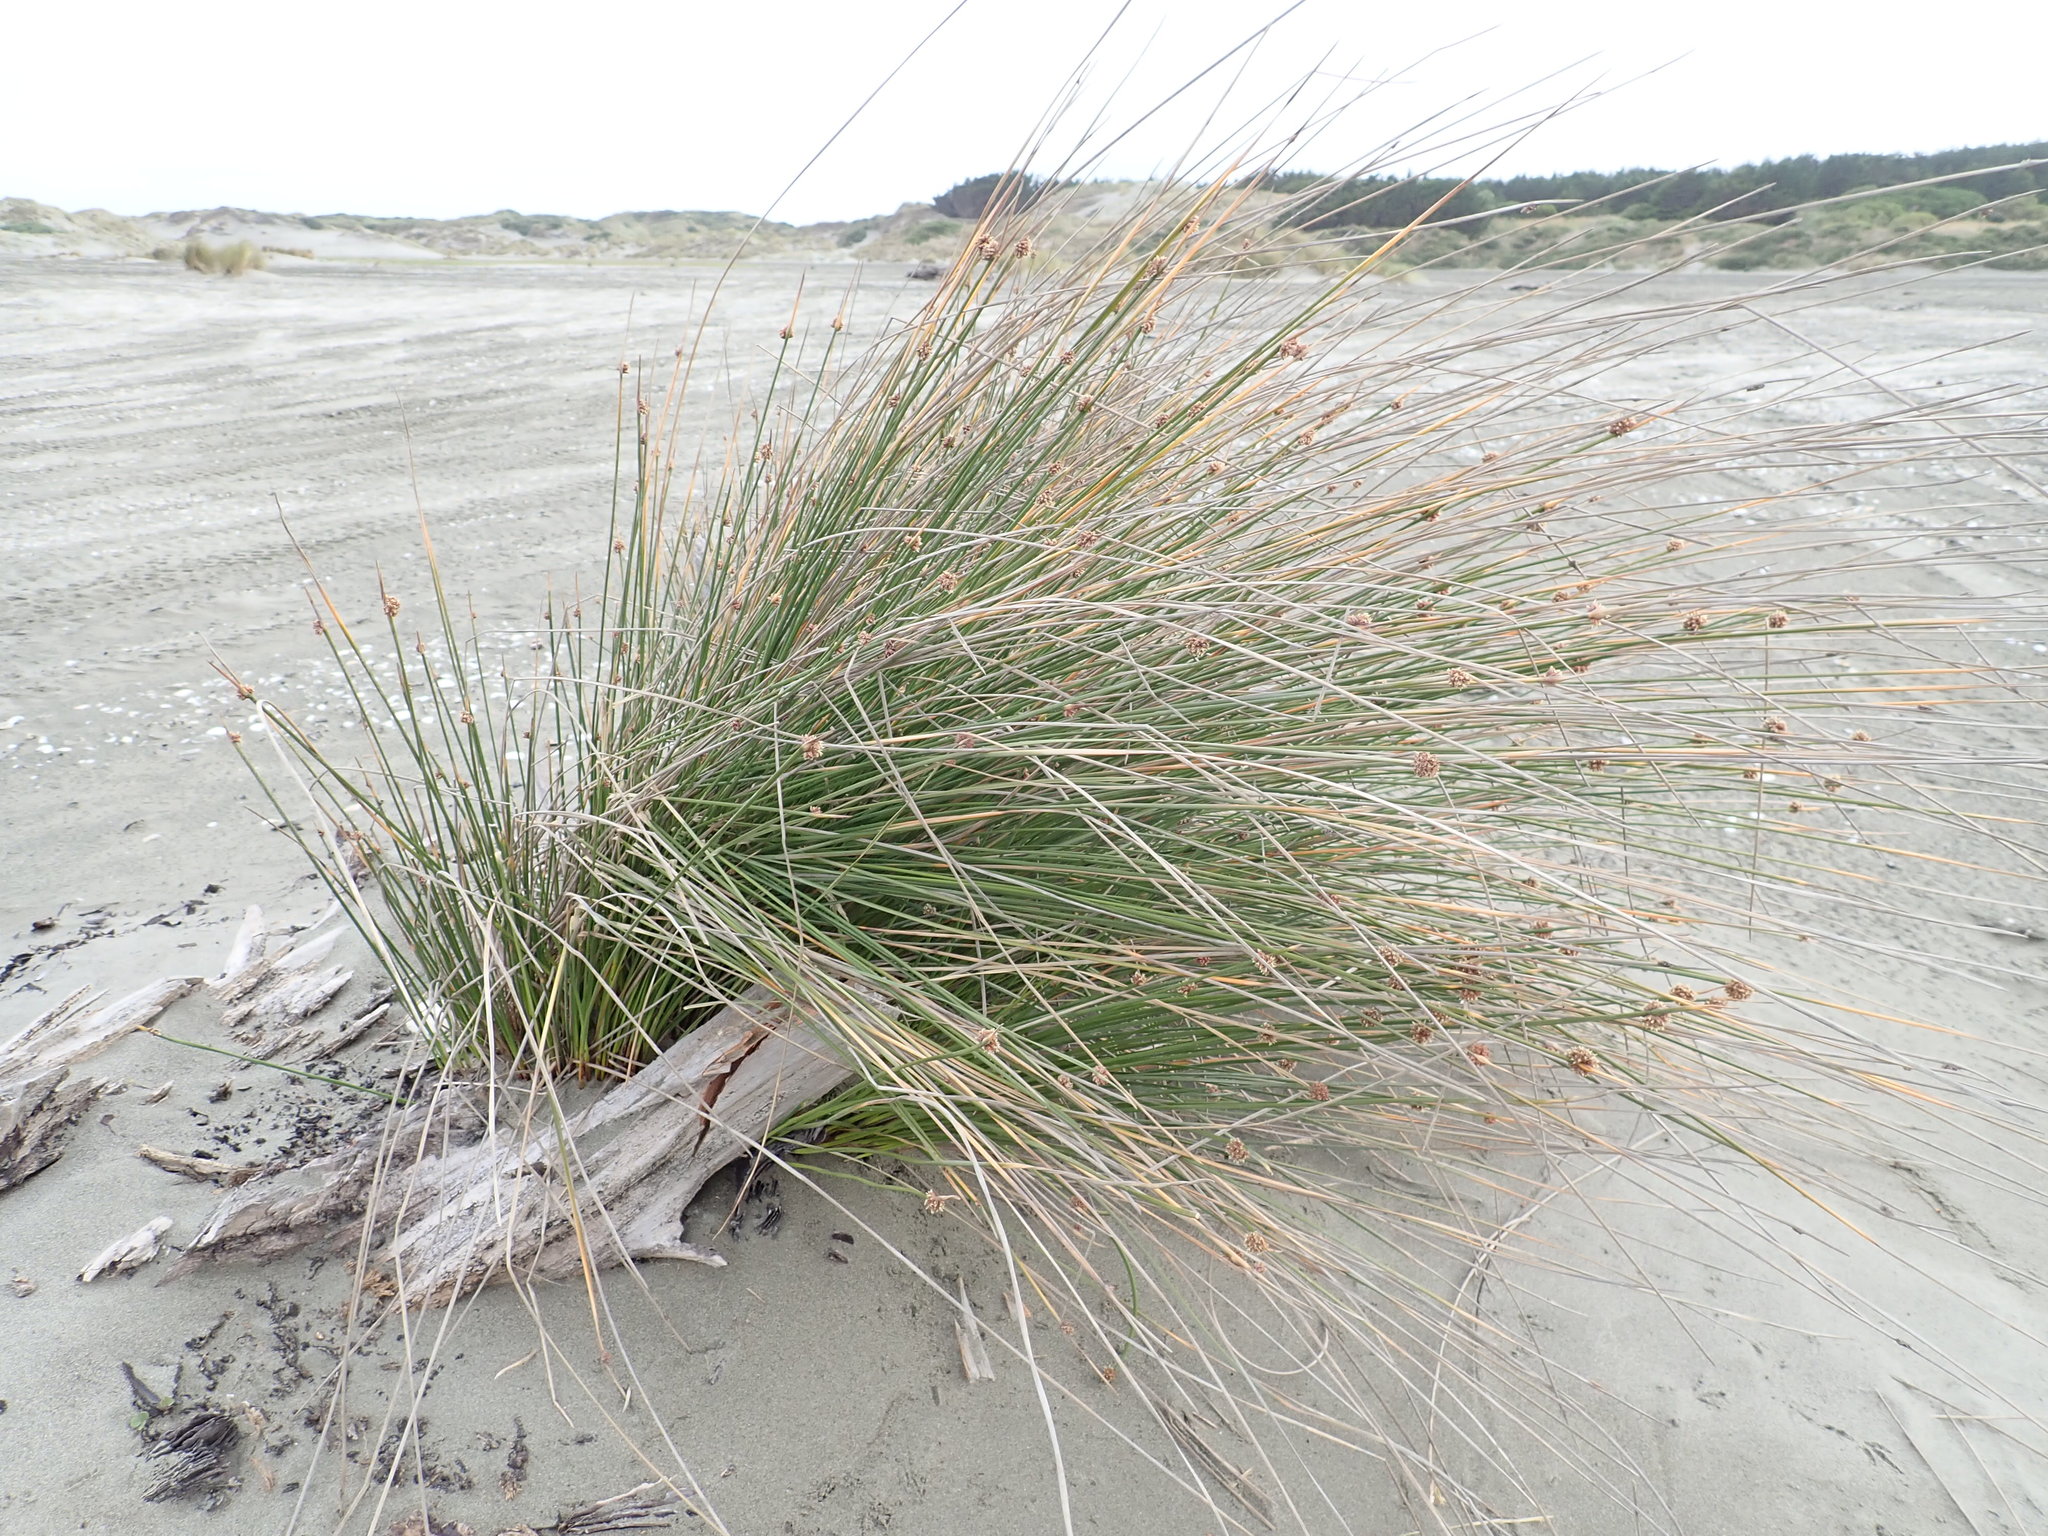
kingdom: Plantae
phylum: Tracheophyta
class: Liliopsida
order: Poales
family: Cyperaceae
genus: Ficinia
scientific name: Ficinia nodosa
